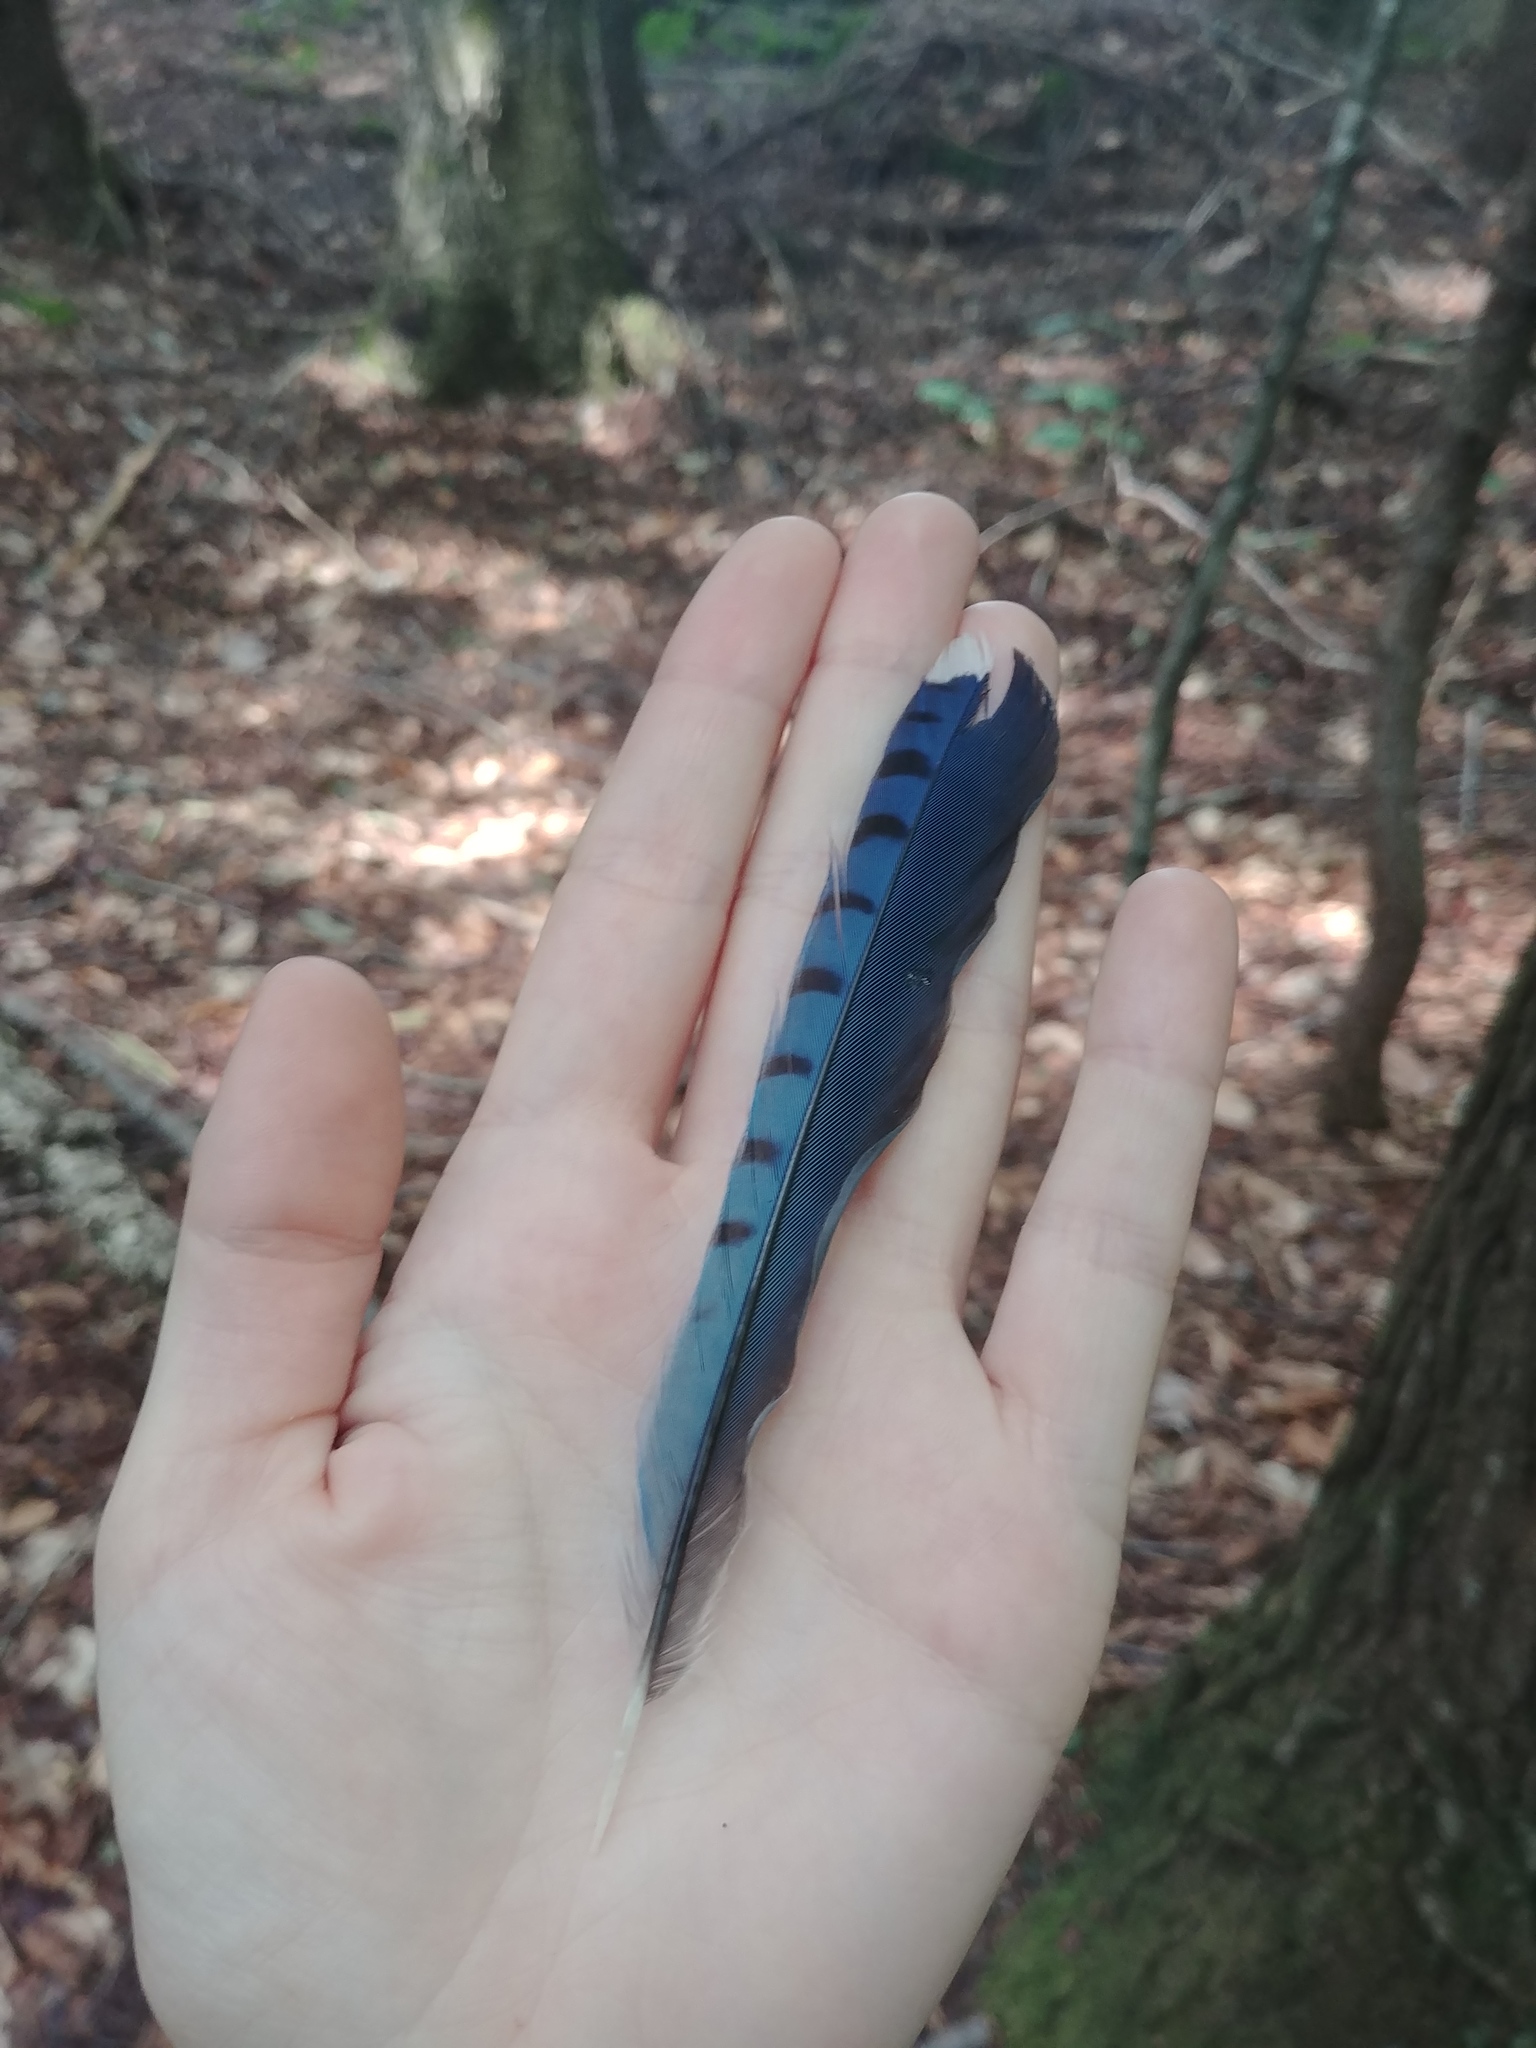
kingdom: Animalia
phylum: Chordata
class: Aves
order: Passeriformes
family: Corvidae
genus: Cyanocitta
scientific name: Cyanocitta cristata
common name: Blue jay
